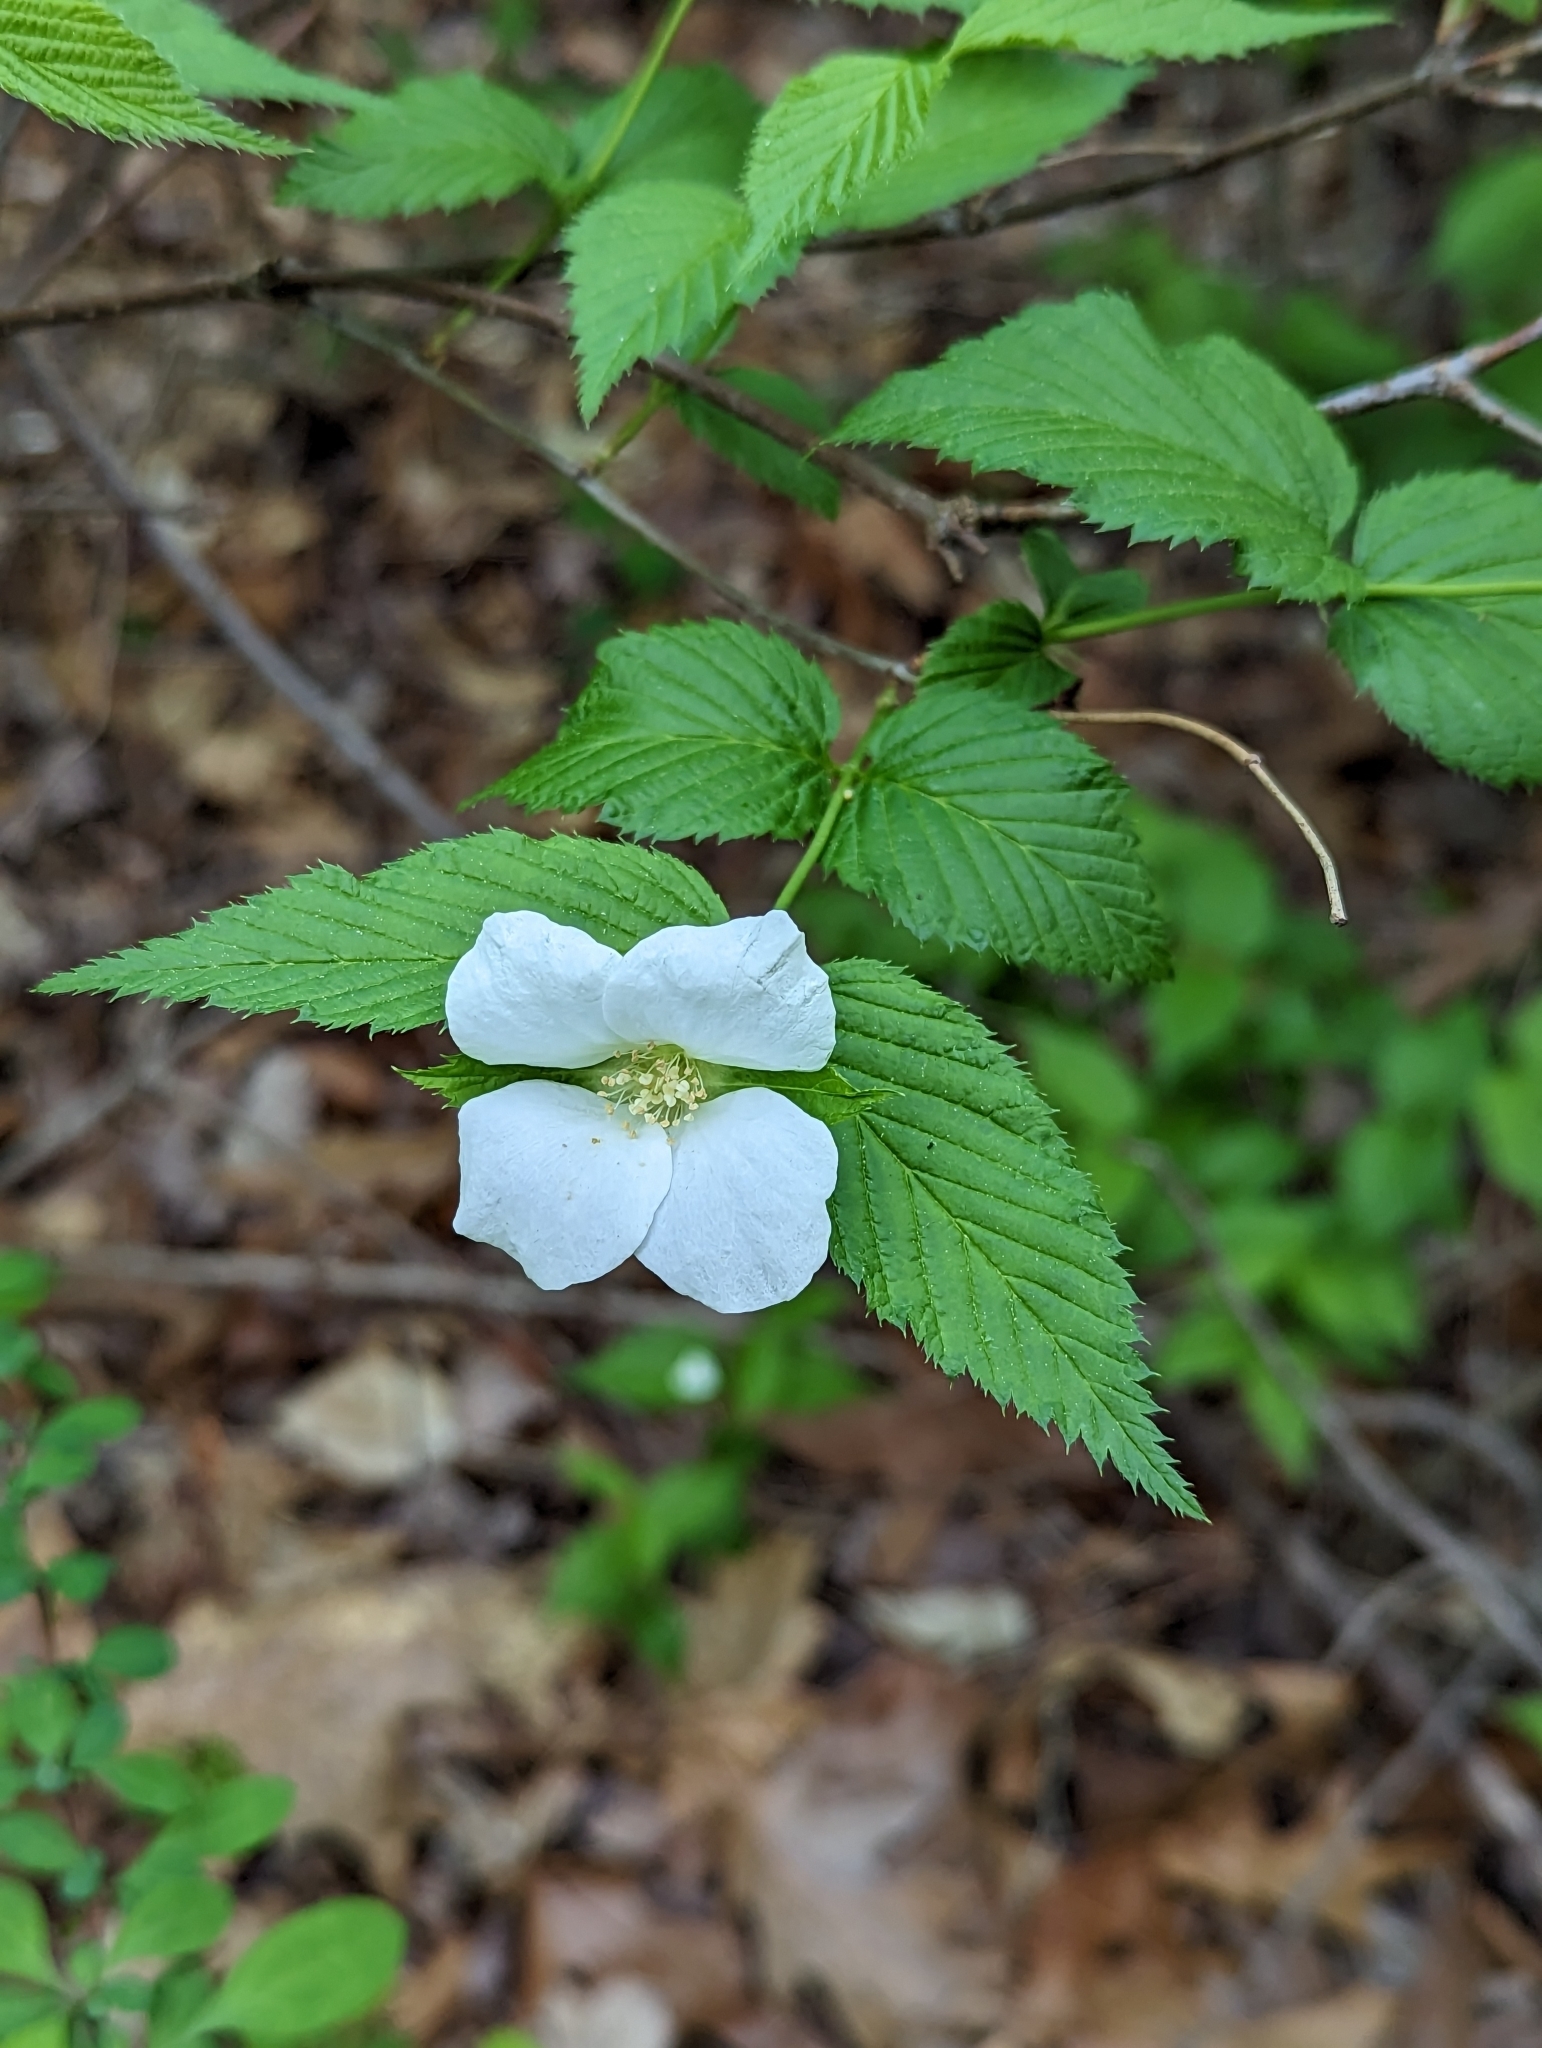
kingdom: Plantae
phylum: Tracheophyta
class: Magnoliopsida
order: Rosales
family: Rosaceae
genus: Rhodotypos
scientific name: Rhodotypos scandens
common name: Jetbead
